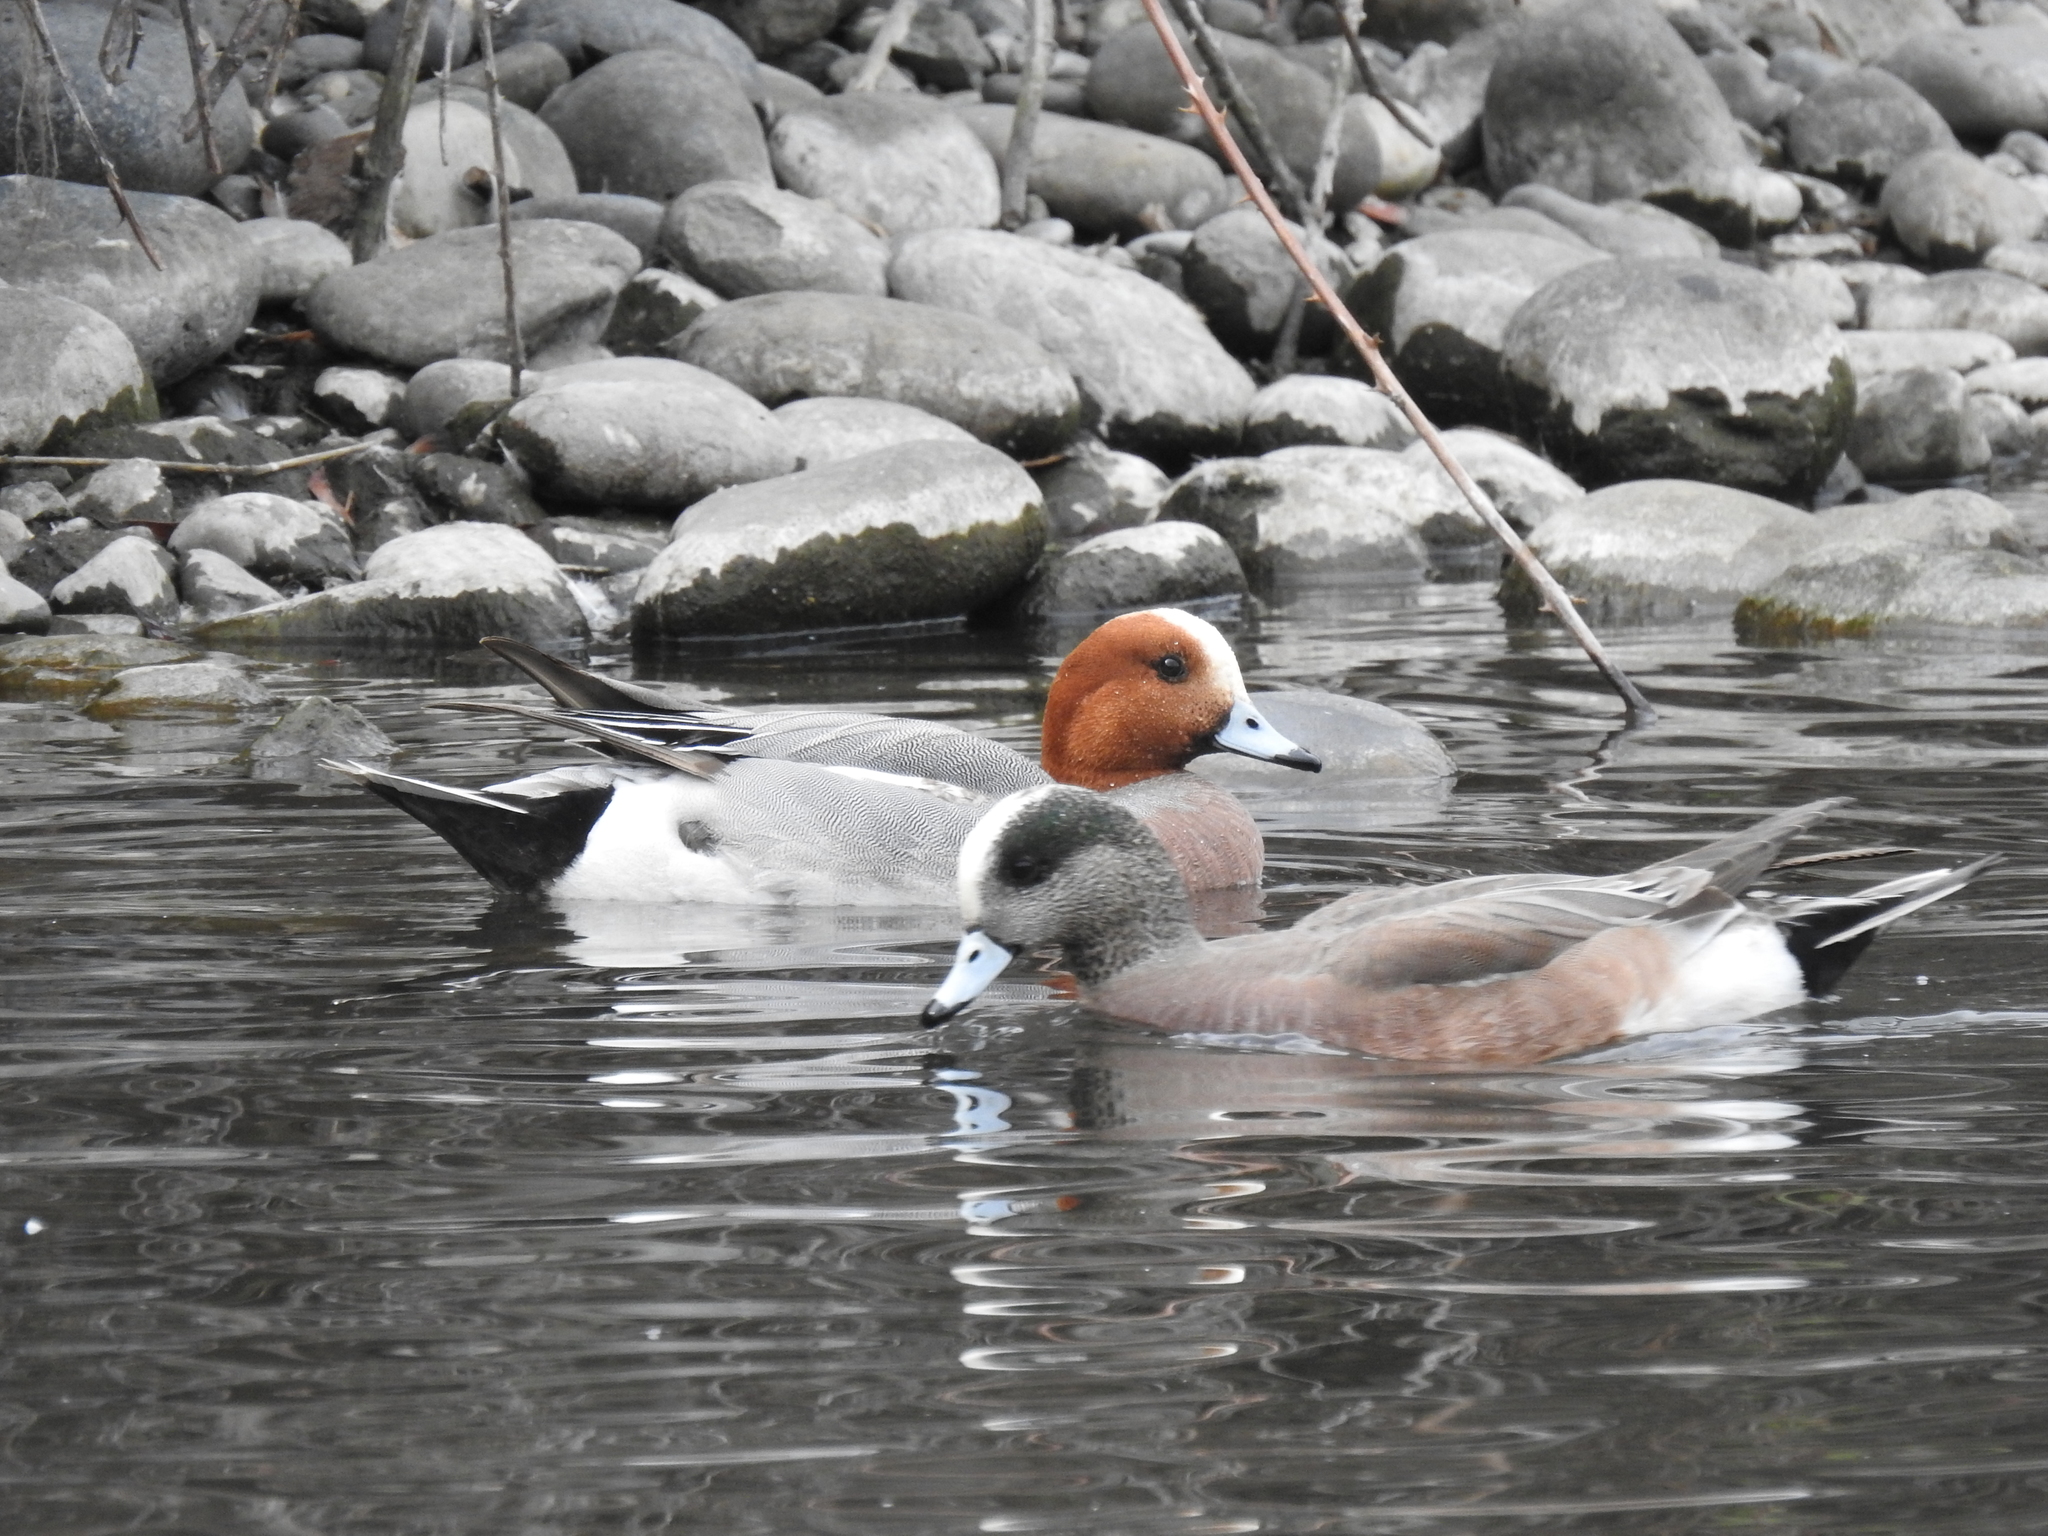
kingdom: Animalia
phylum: Chordata
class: Aves
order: Anseriformes
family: Anatidae
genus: Mareca
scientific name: Mareca americana
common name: American wigeon
